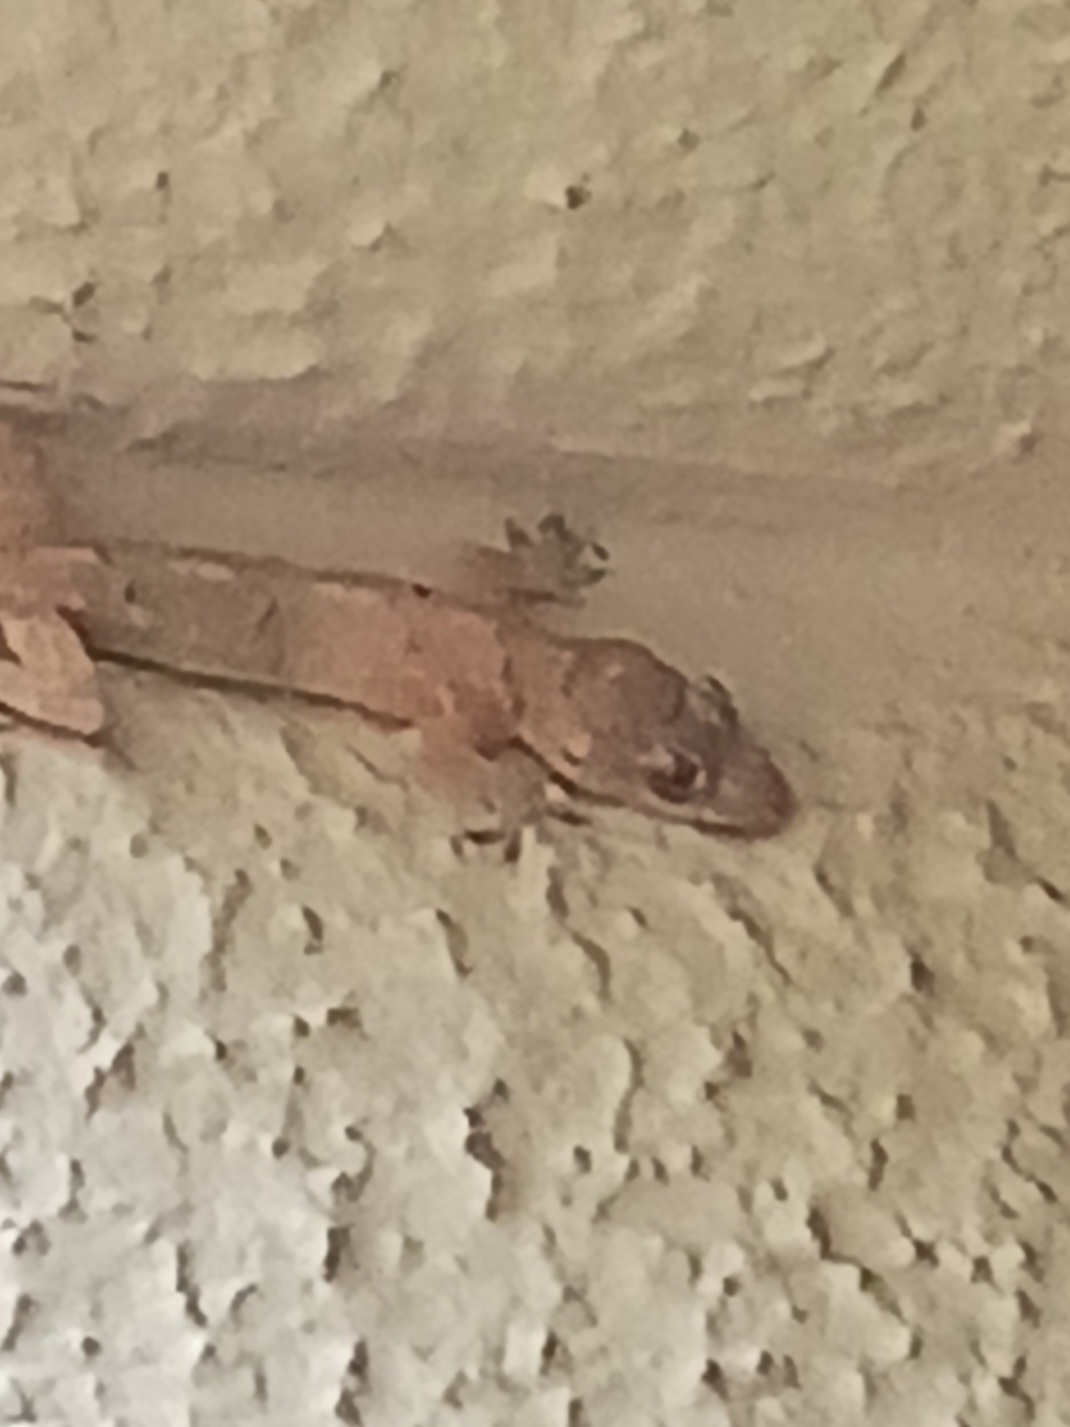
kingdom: Animalia
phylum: Chordata
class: Squamata
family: Gekkonidae
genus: Hemidactylus
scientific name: Hemidactylus mabouia
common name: House gecko
